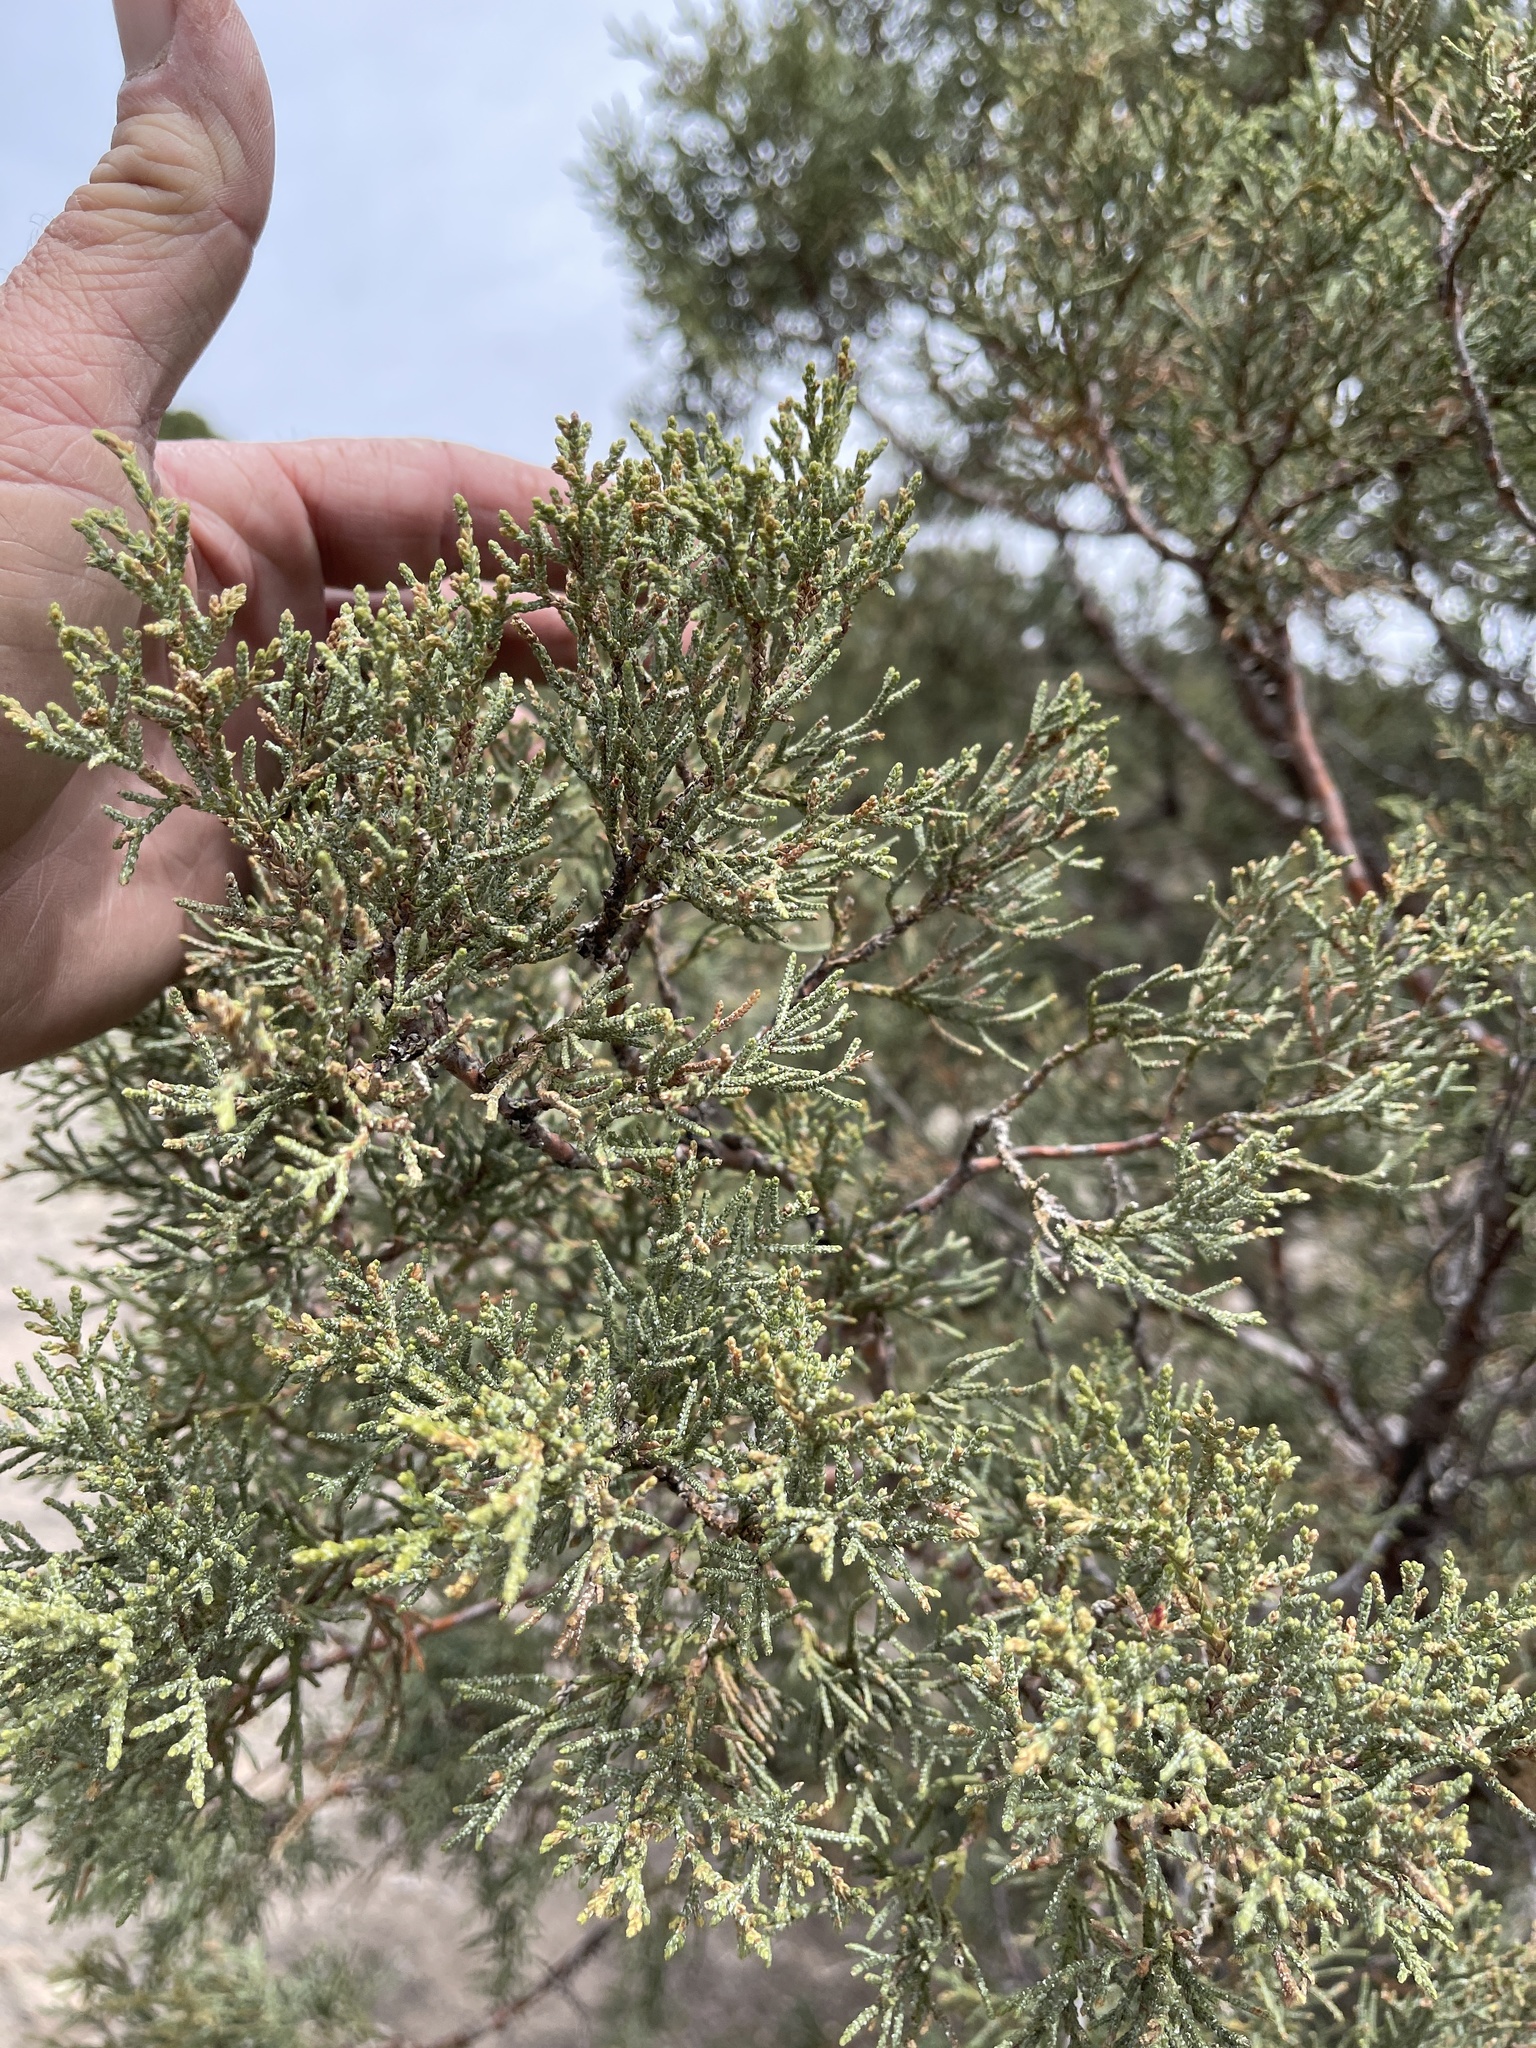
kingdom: Plantae
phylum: Tracheophyta
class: Pinopsida
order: Pinales
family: Cupressaceae
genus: Juniperus
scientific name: Juniperus deppeana
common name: Alligator juniper
